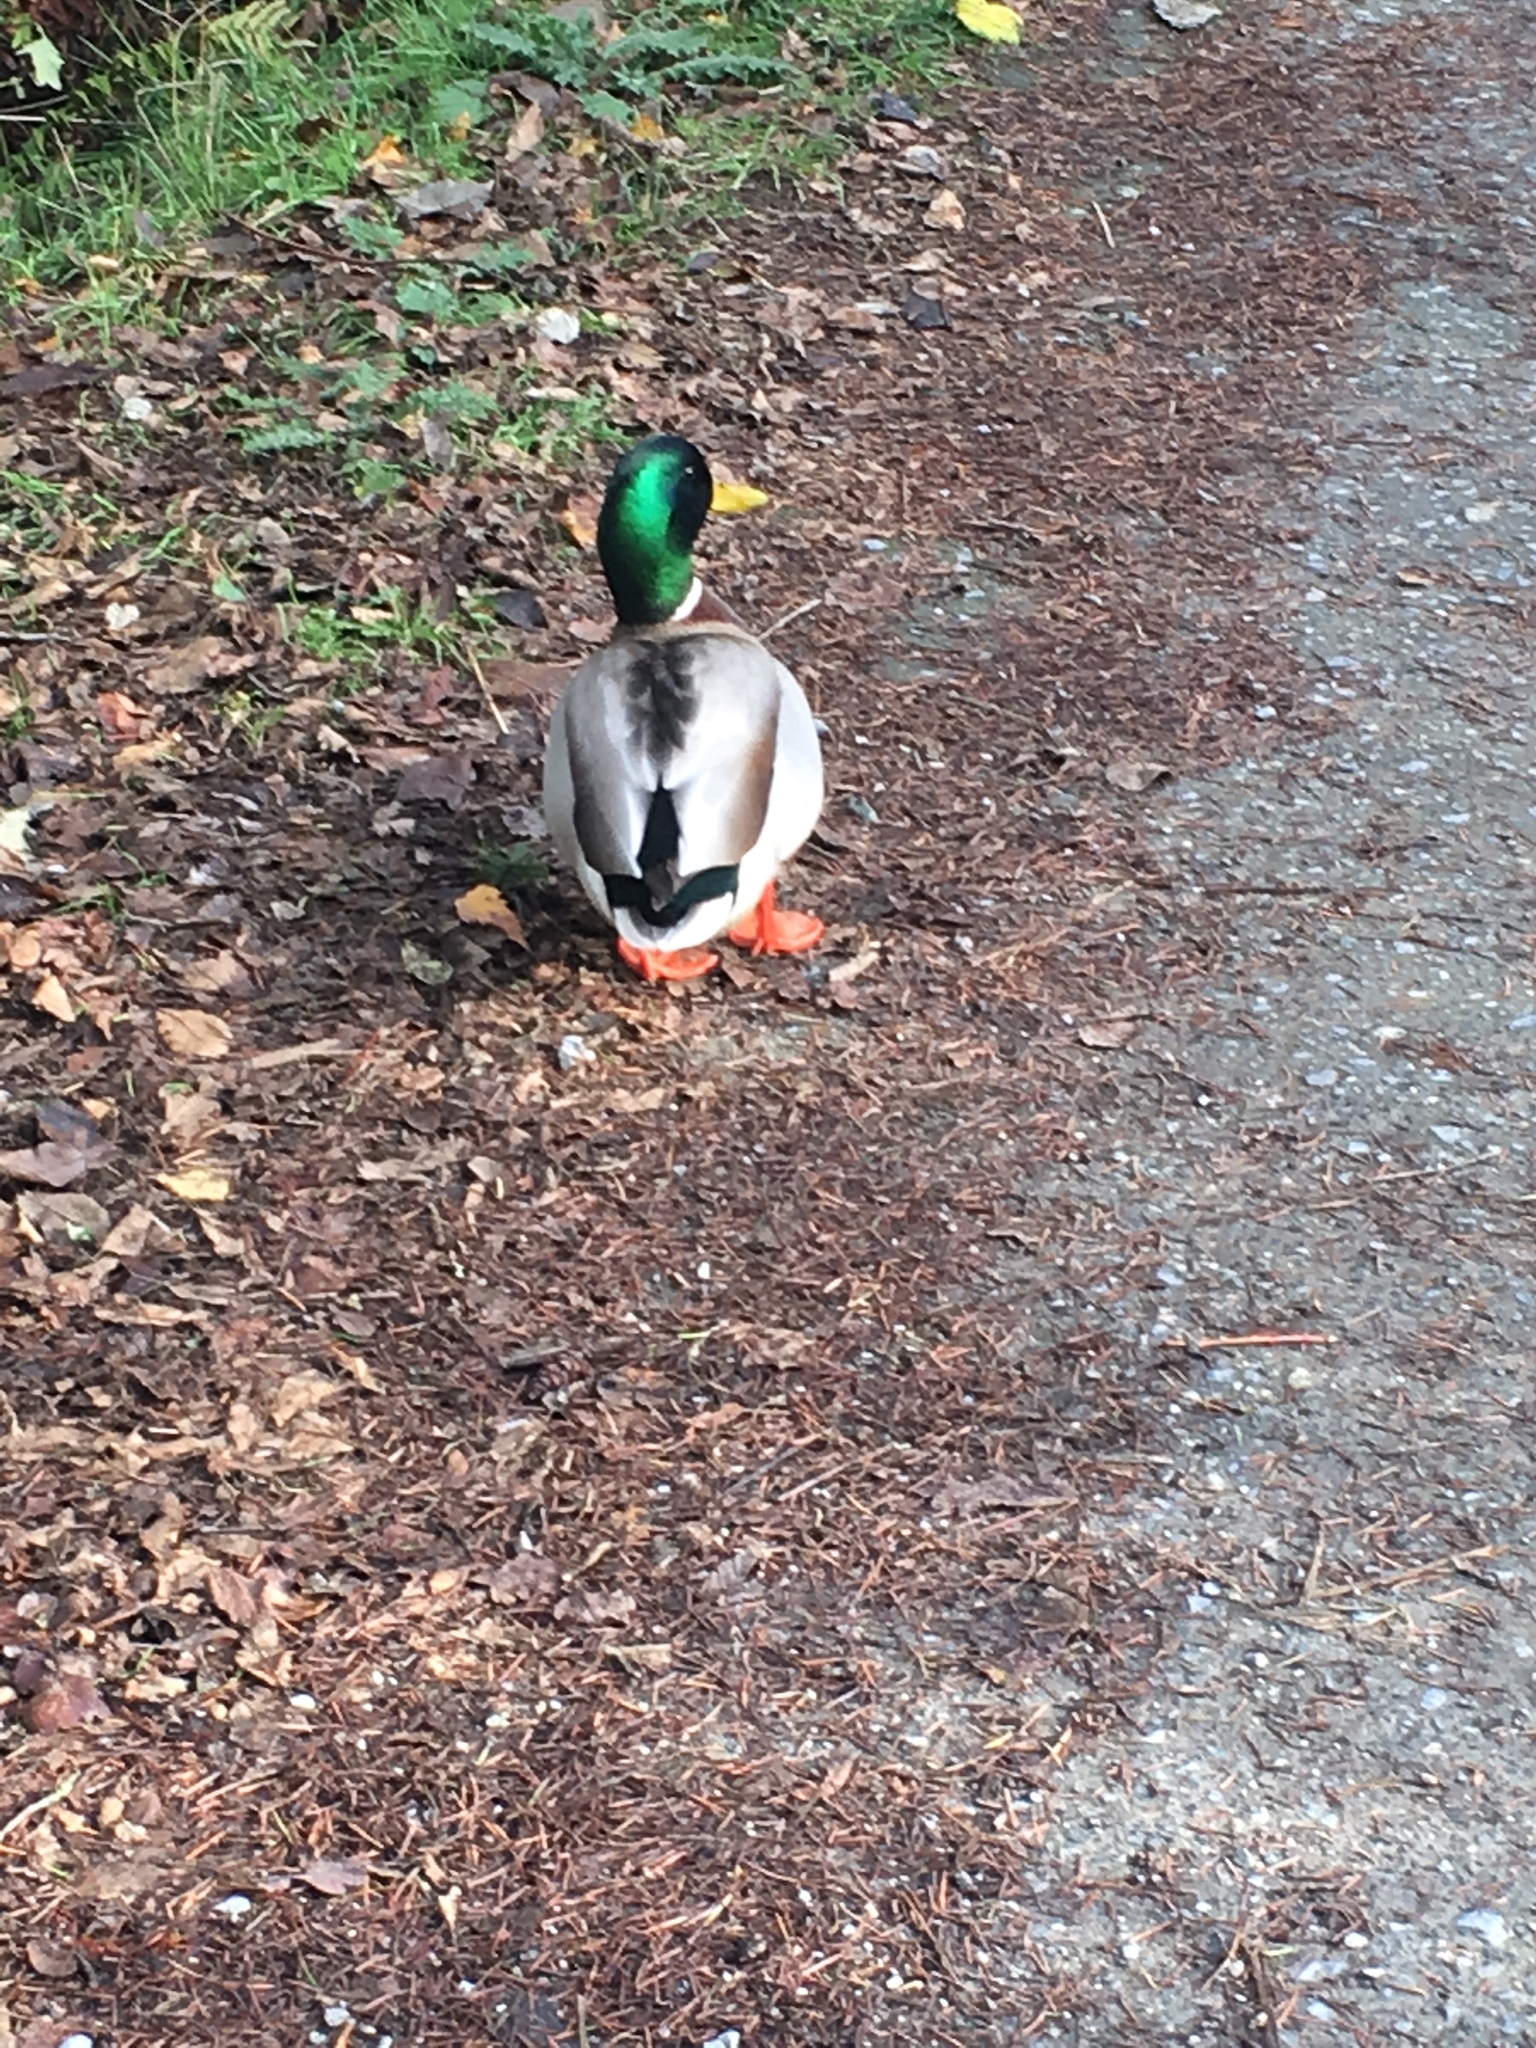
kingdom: Animalia
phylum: Chordata
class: Aves
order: Anseriformes
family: Anatidae
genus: Anas
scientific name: Anas platyrhynchos
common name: Mallard
